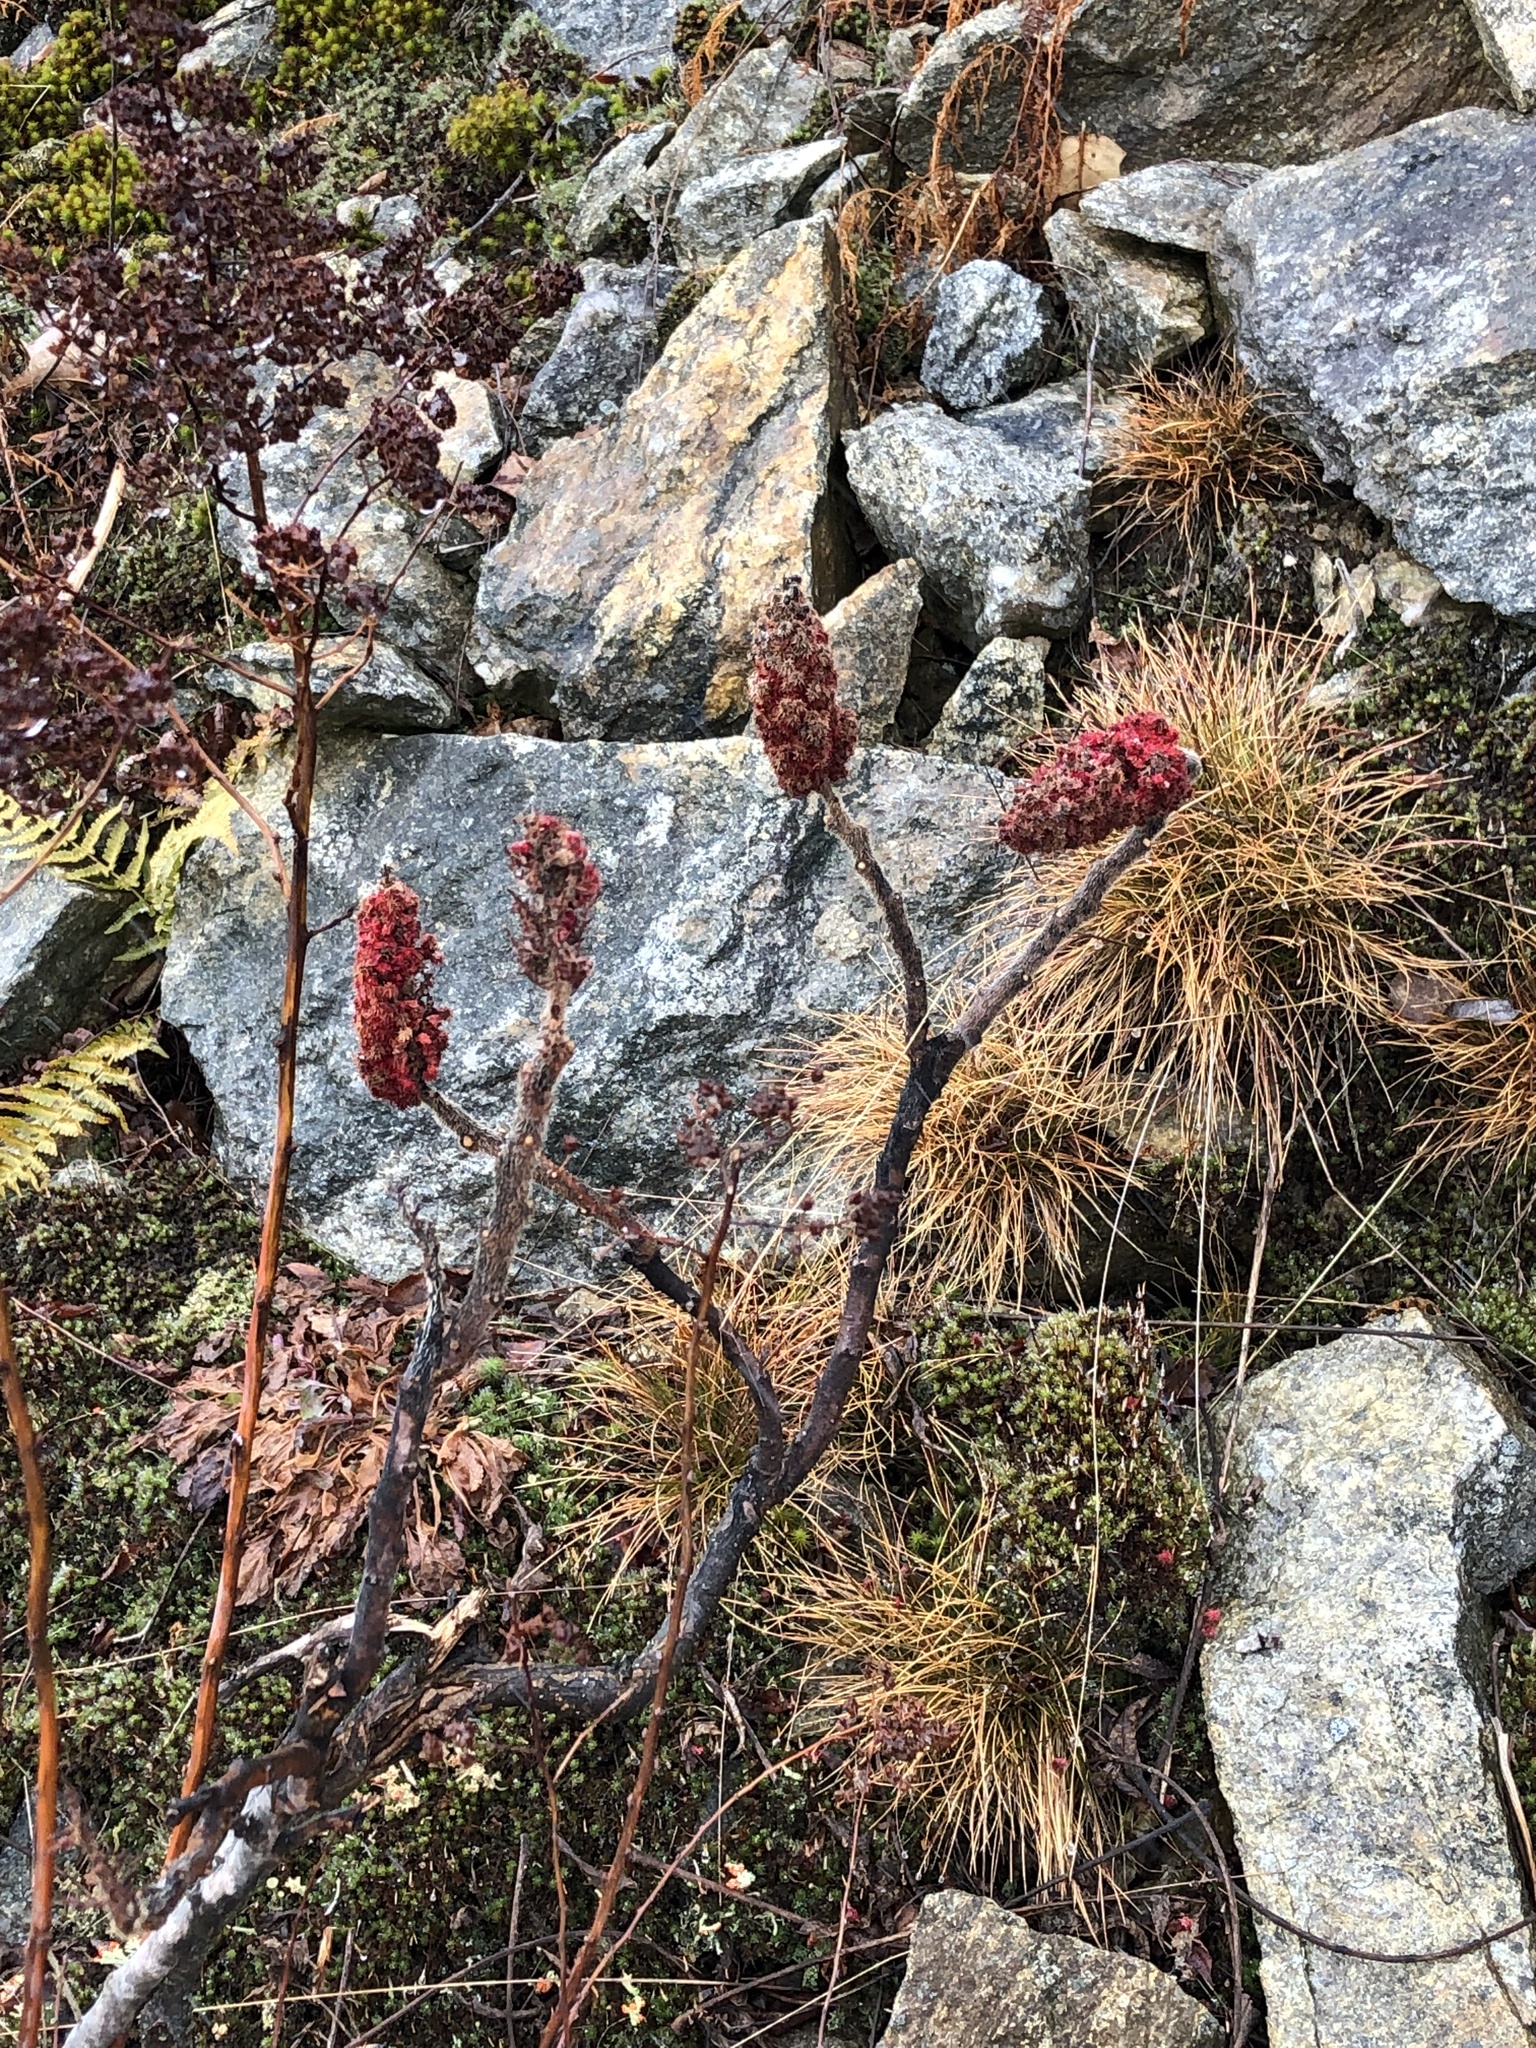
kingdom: Plantae
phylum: Tracheophyta
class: Magnoliopsida
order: Sapindales
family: Anacardiaceae
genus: Rhus
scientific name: Rhus typhina
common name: Staghorn sumac
